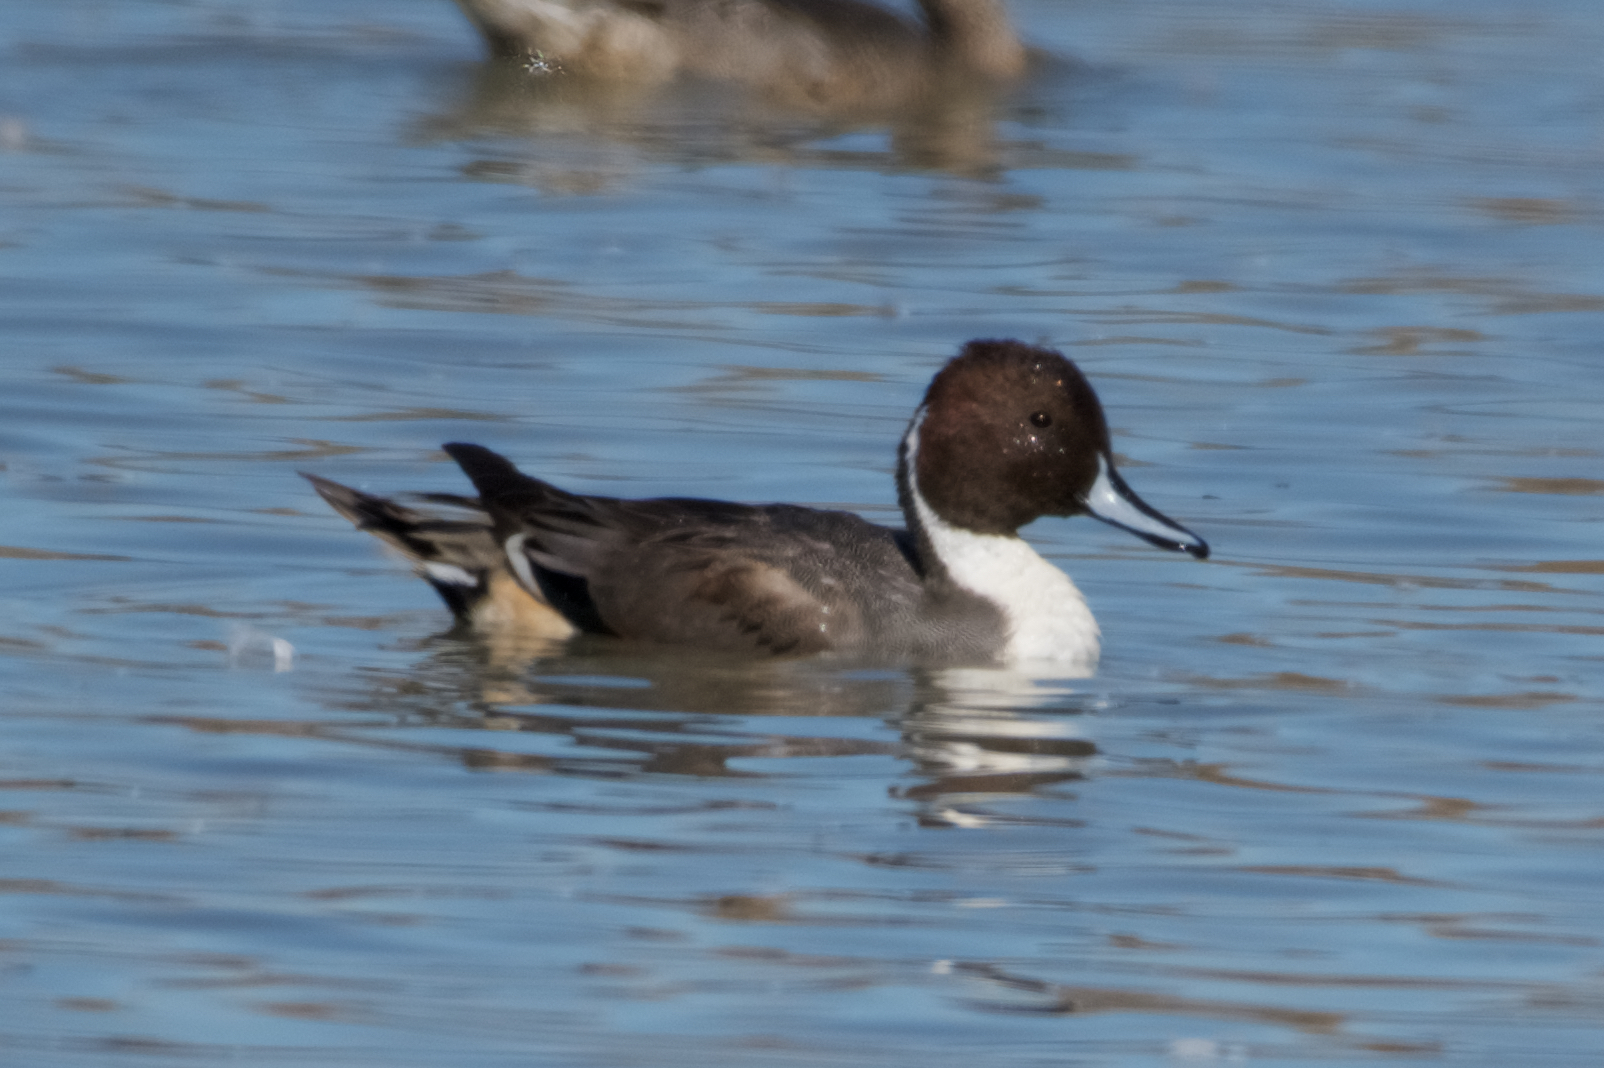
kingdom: Animalia
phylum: Chordata
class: Aves
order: Anseriformes
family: Anatidae
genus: Anas
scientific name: Anas acuta
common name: Northern pintail
